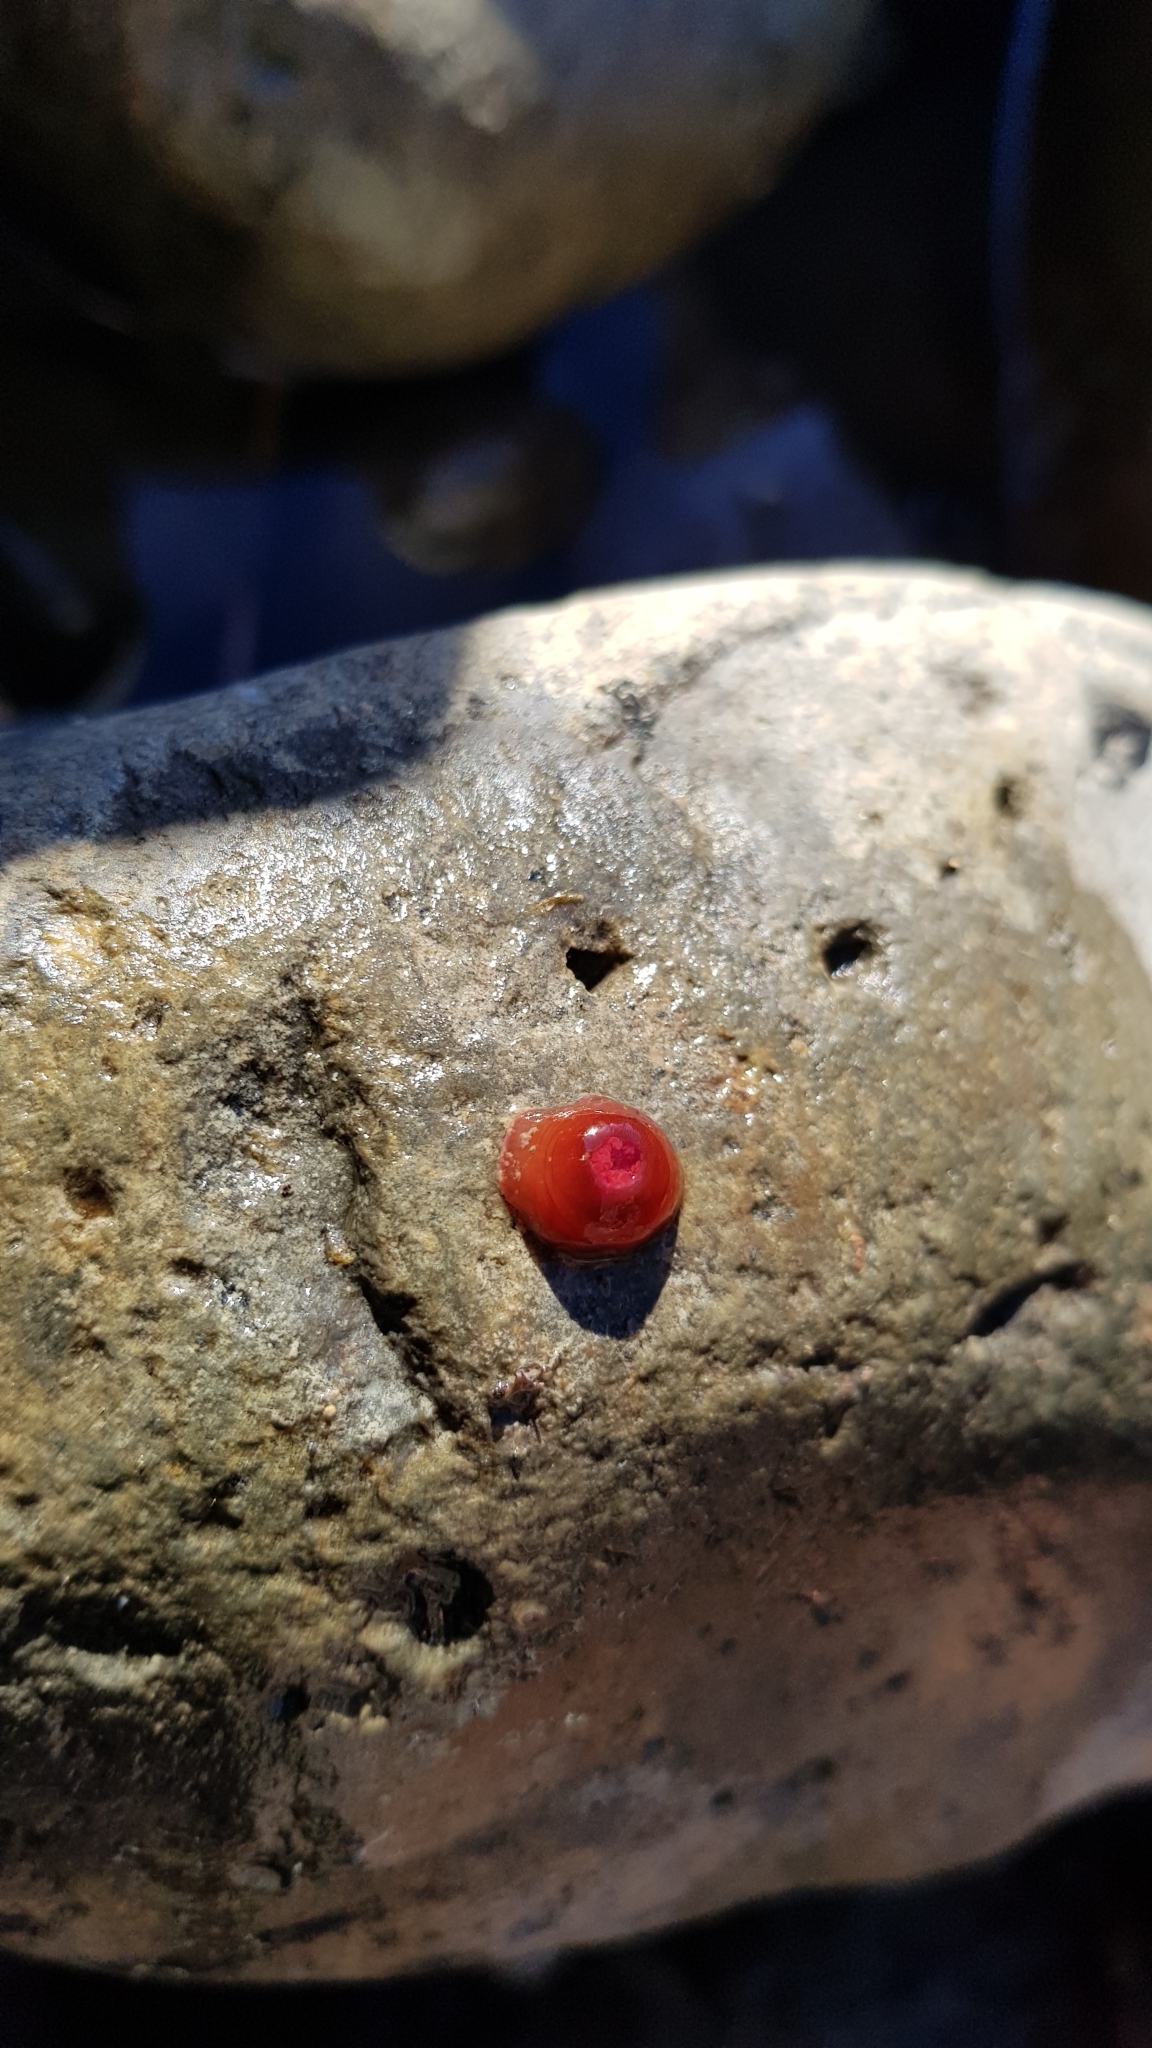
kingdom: Animalia
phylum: Cnidaria
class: Anthozoa
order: Actiniaria
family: Actiniidae
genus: Actinia
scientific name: Actinia tenebrosa
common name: Waratah anemone
